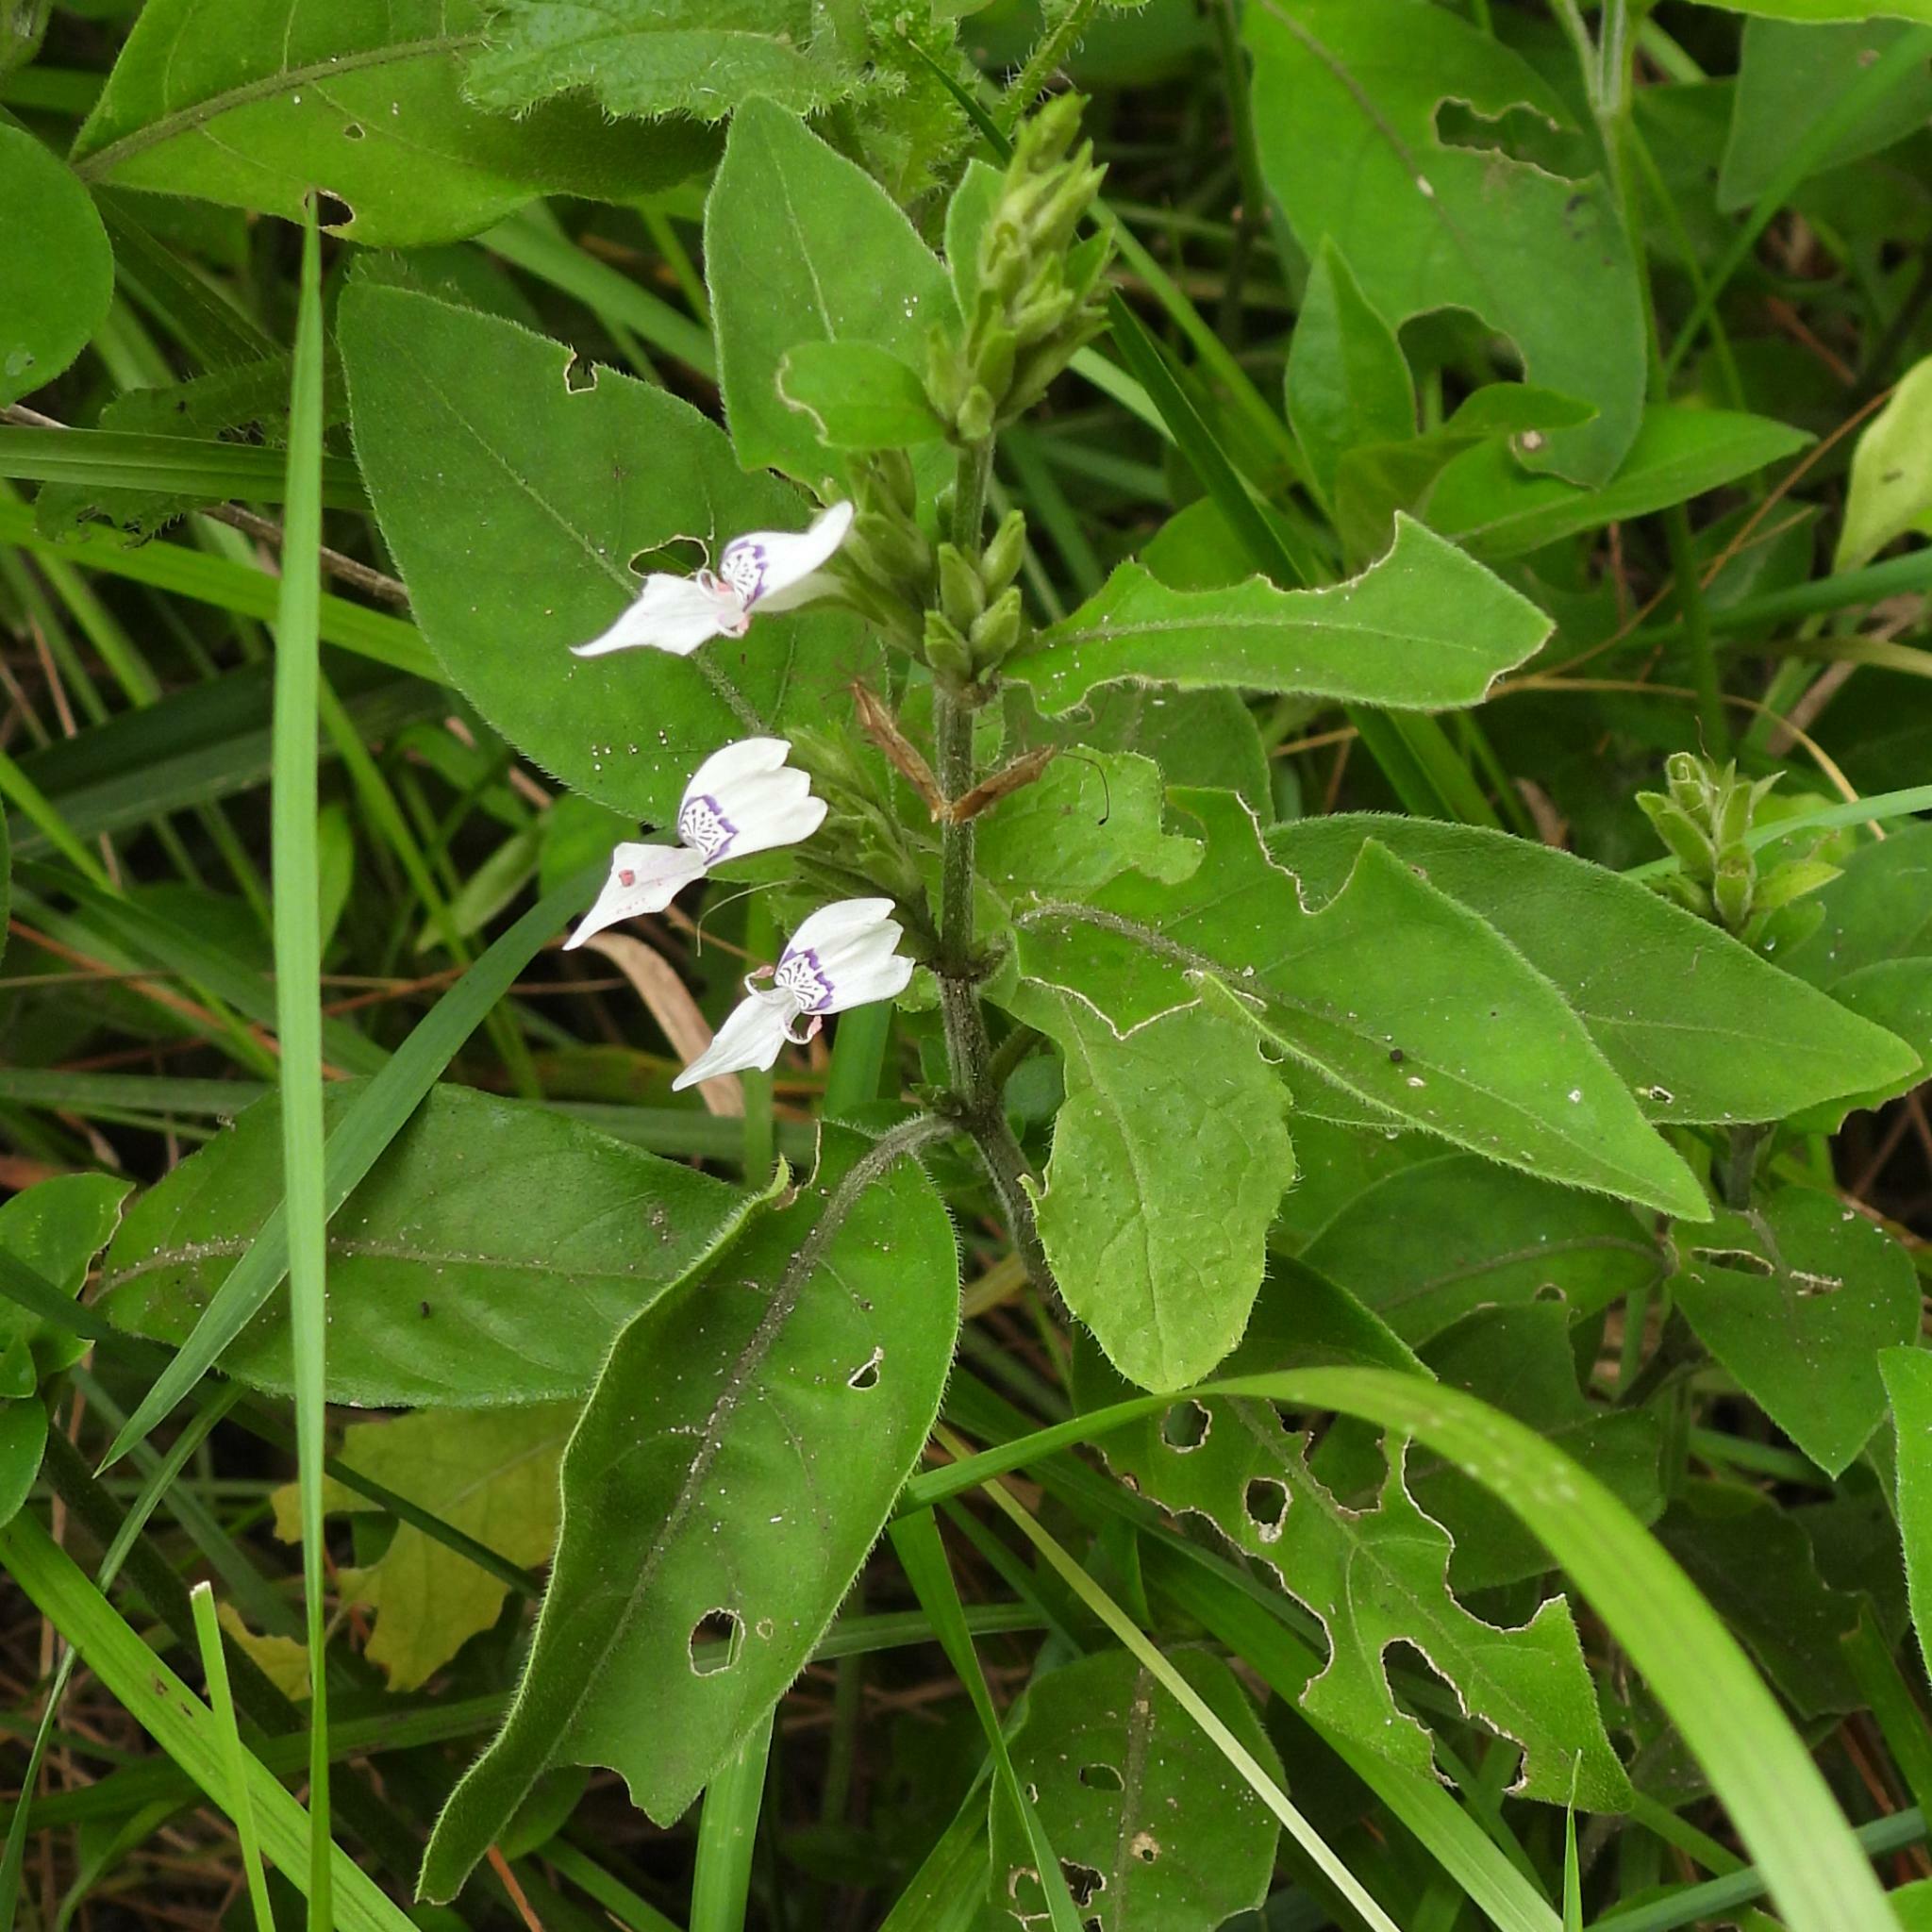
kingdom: Plantae
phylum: Tracheophyta
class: Magnoliopsida
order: Lamiales
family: Acanthaceae
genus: Hypoestes
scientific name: Hypoestes forskaolii
